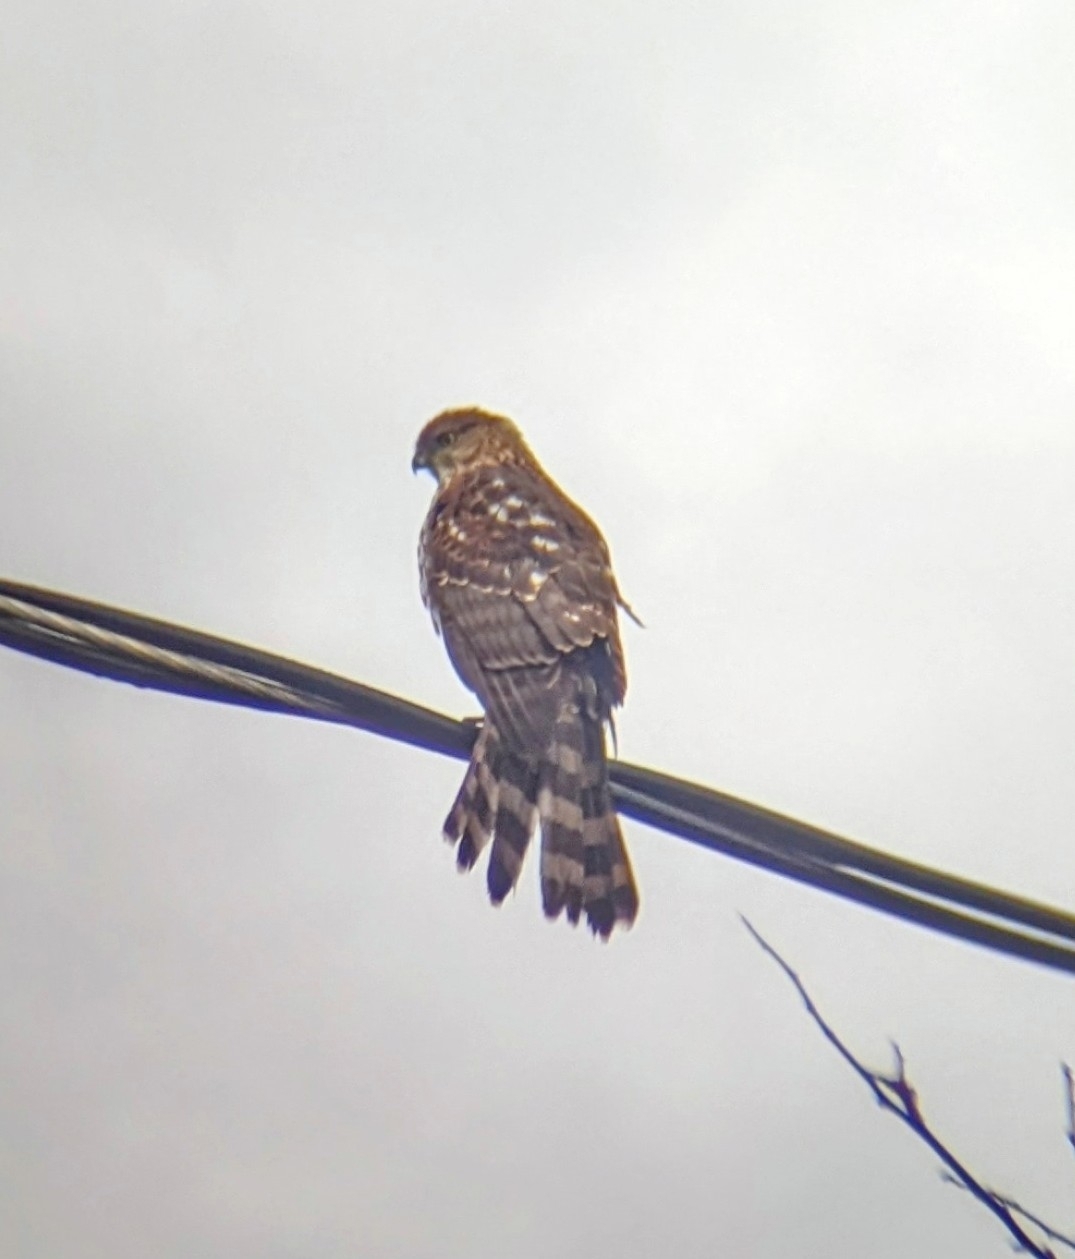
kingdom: Animalia
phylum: Chordata
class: Aves
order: Accipitriformes
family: Accipitridae
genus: Accipiter
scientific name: Accipiter cooperii
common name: Cooper's hawk
